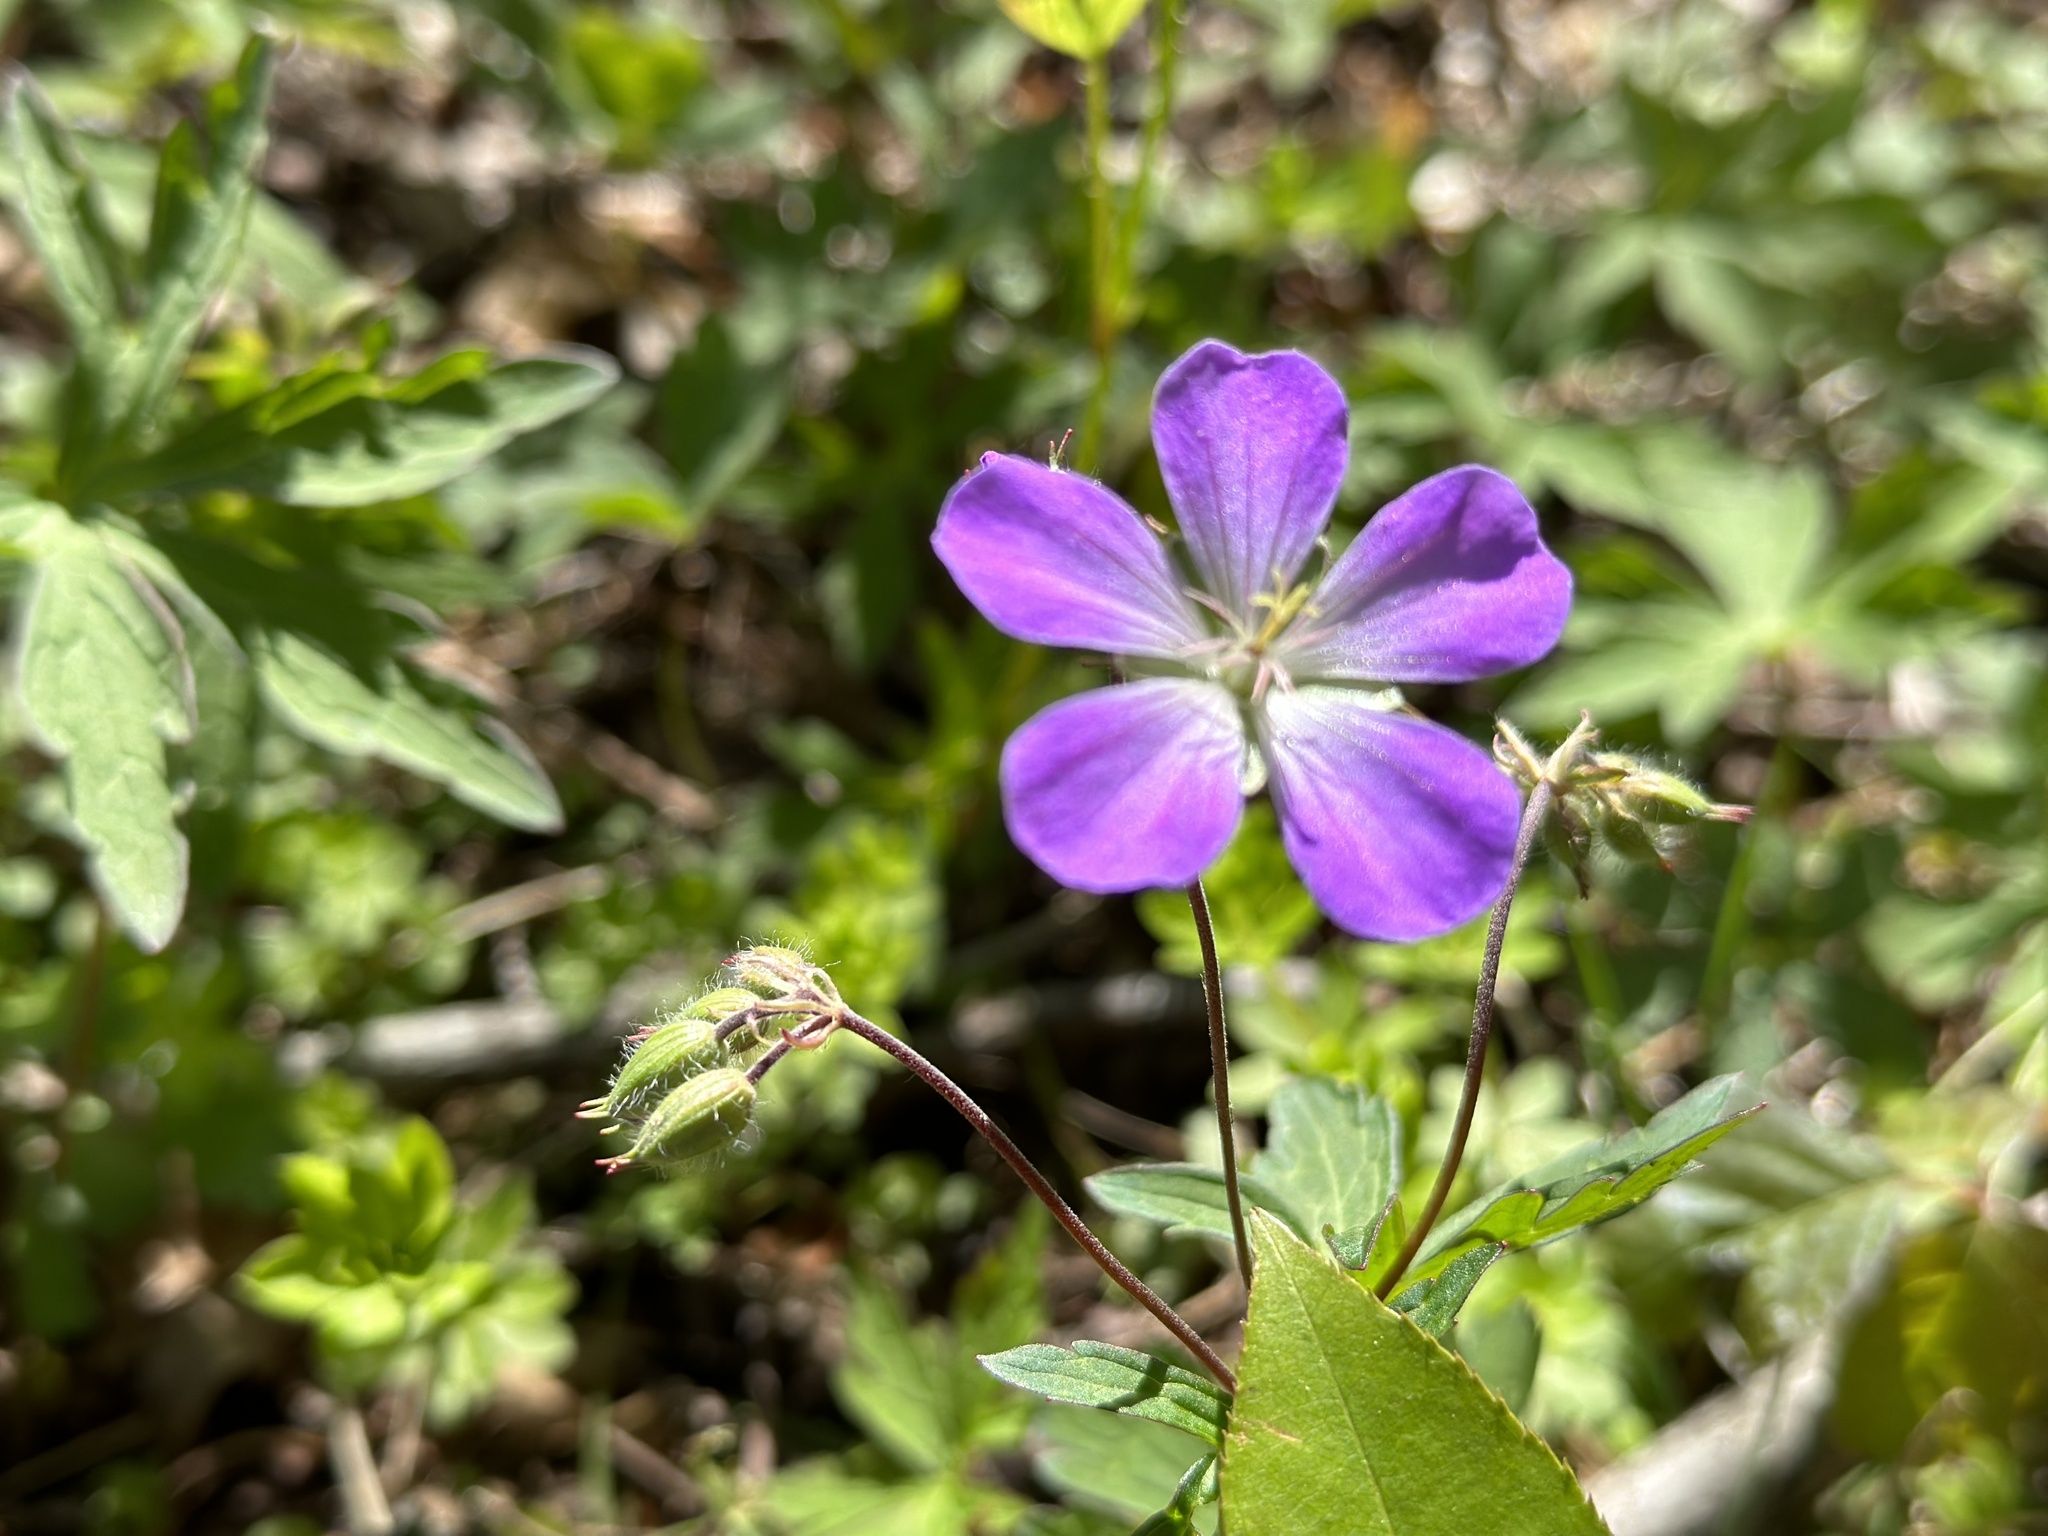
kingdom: Plantae
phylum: Tracheophyta
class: Magnoliopsida
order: Geraniales
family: Geraniaceae
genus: Geranium
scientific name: Geranium maculatum
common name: Spotted geranium
